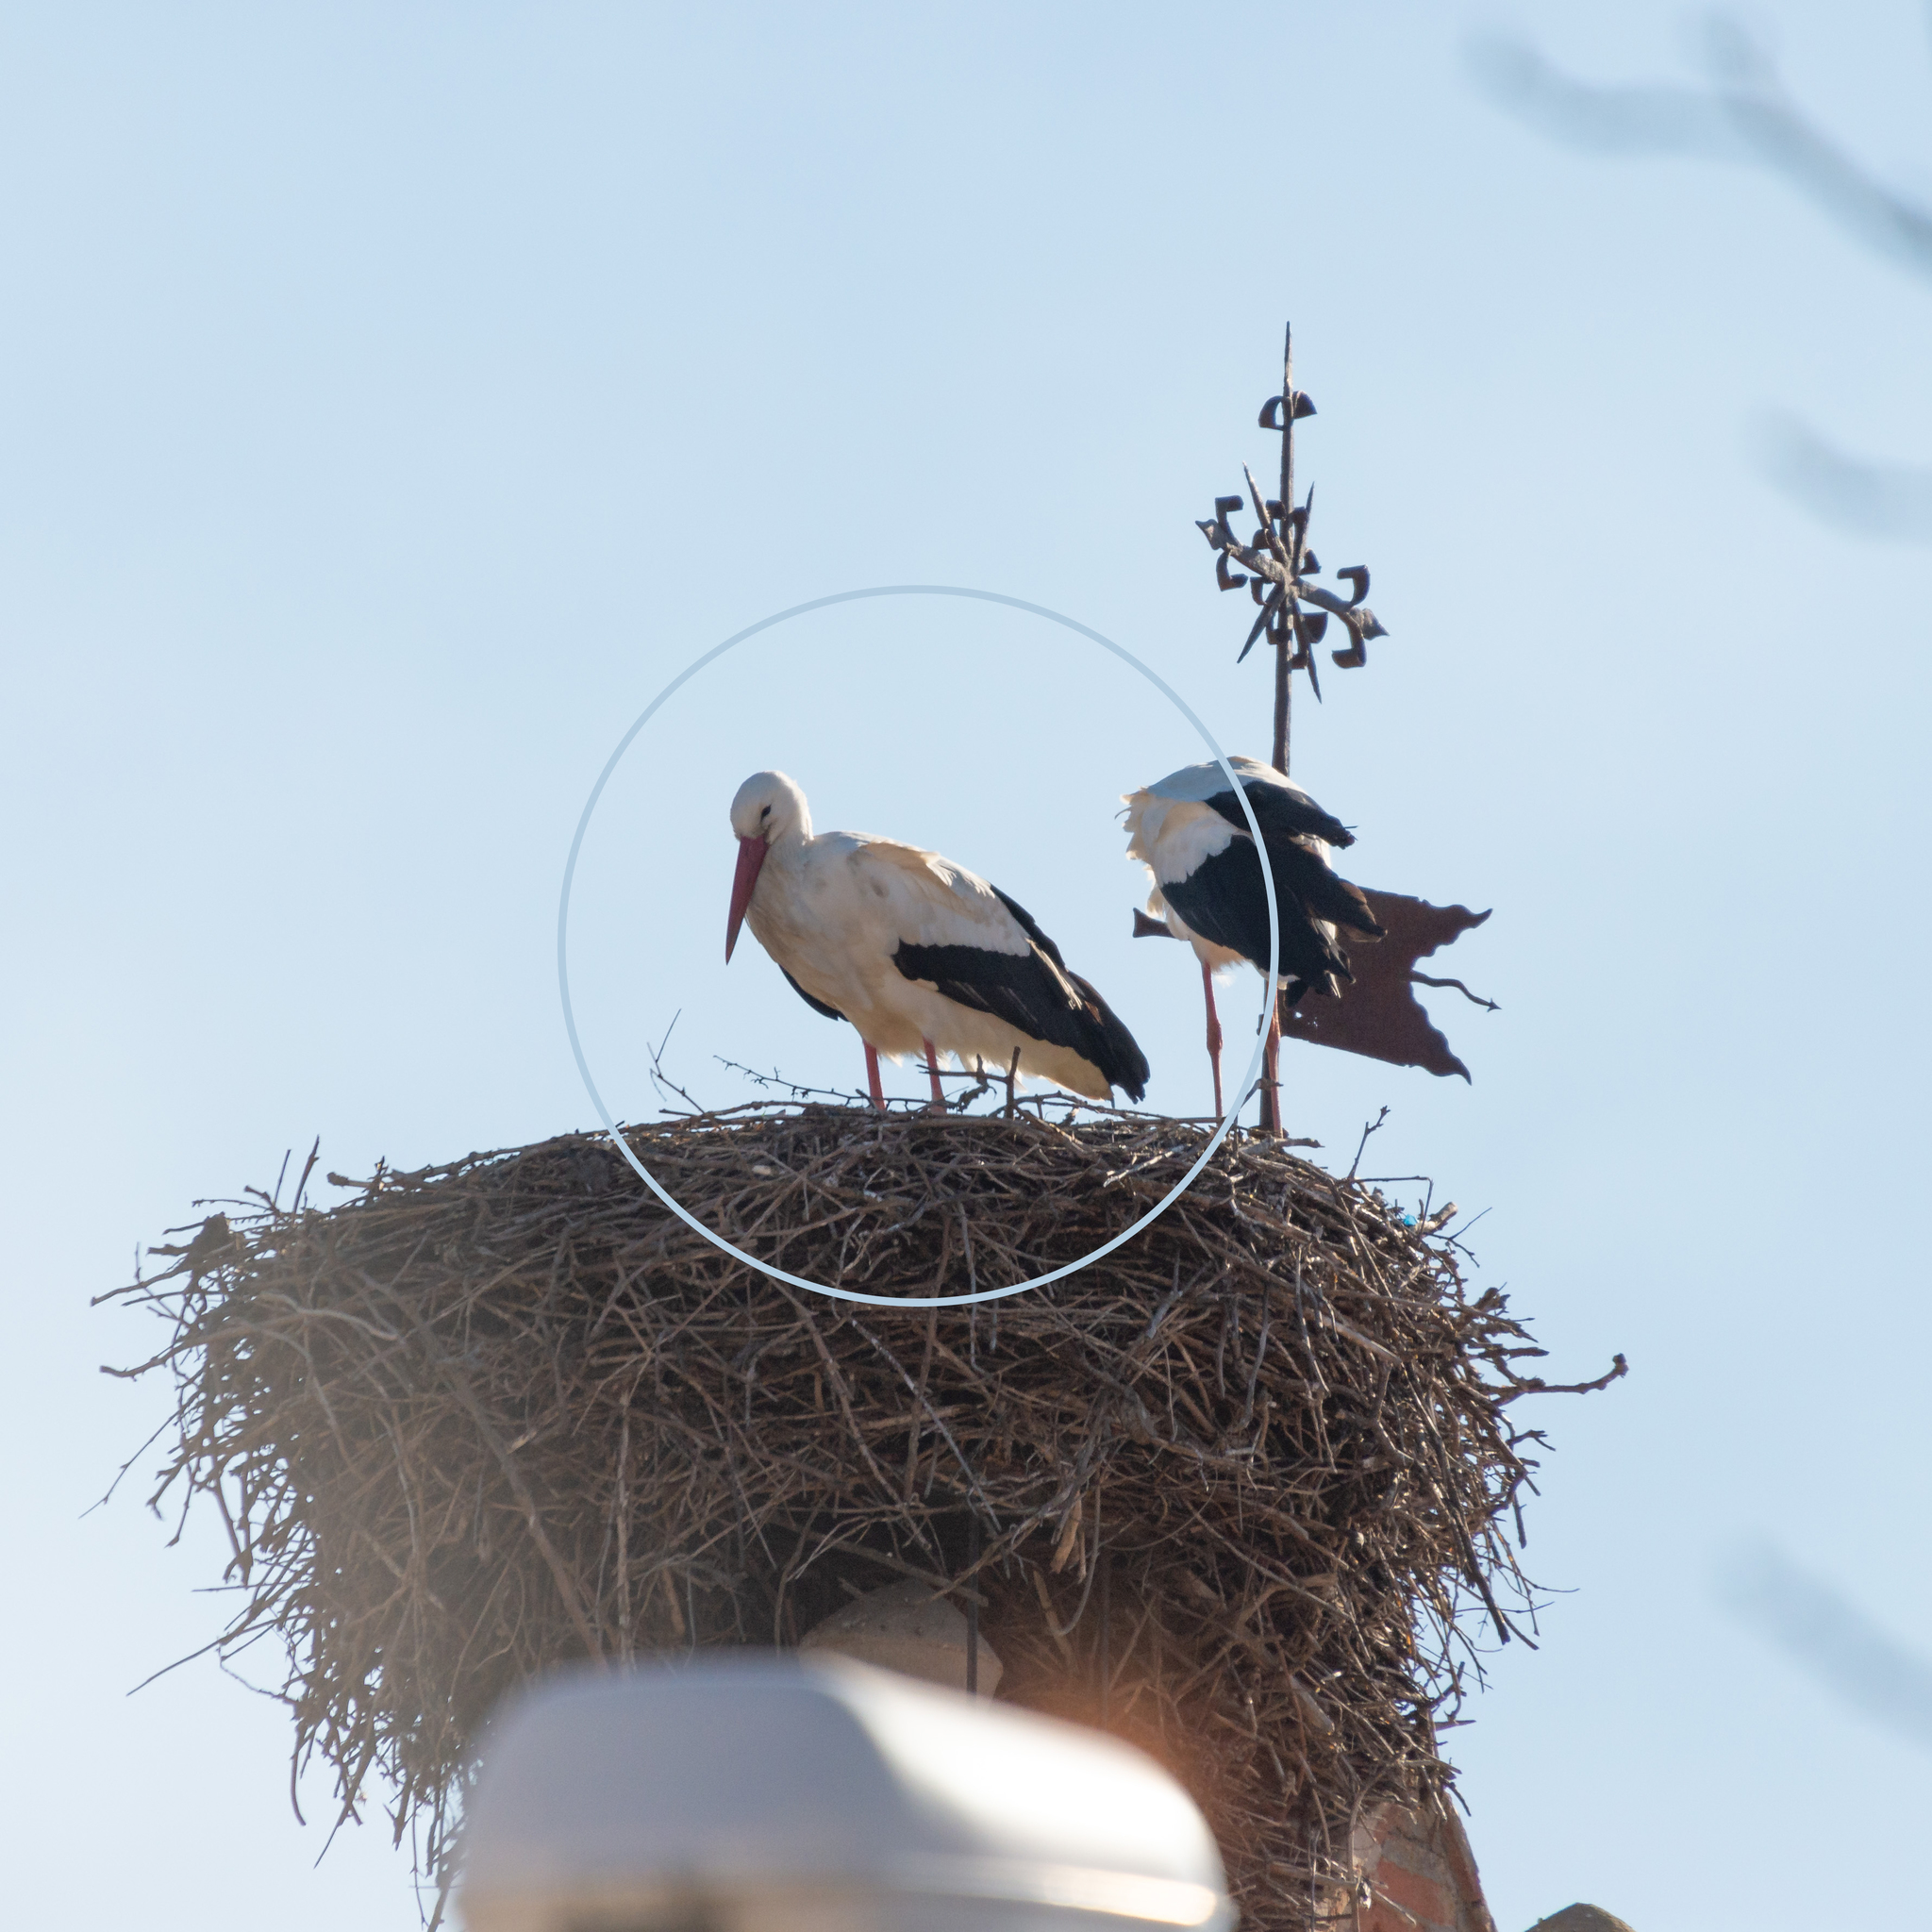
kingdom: Animalia
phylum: Chordata
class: Aves
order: Ciconiiformes
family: Ciconiidae
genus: Ciconia
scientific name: Ciconia ciconia
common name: White stork
